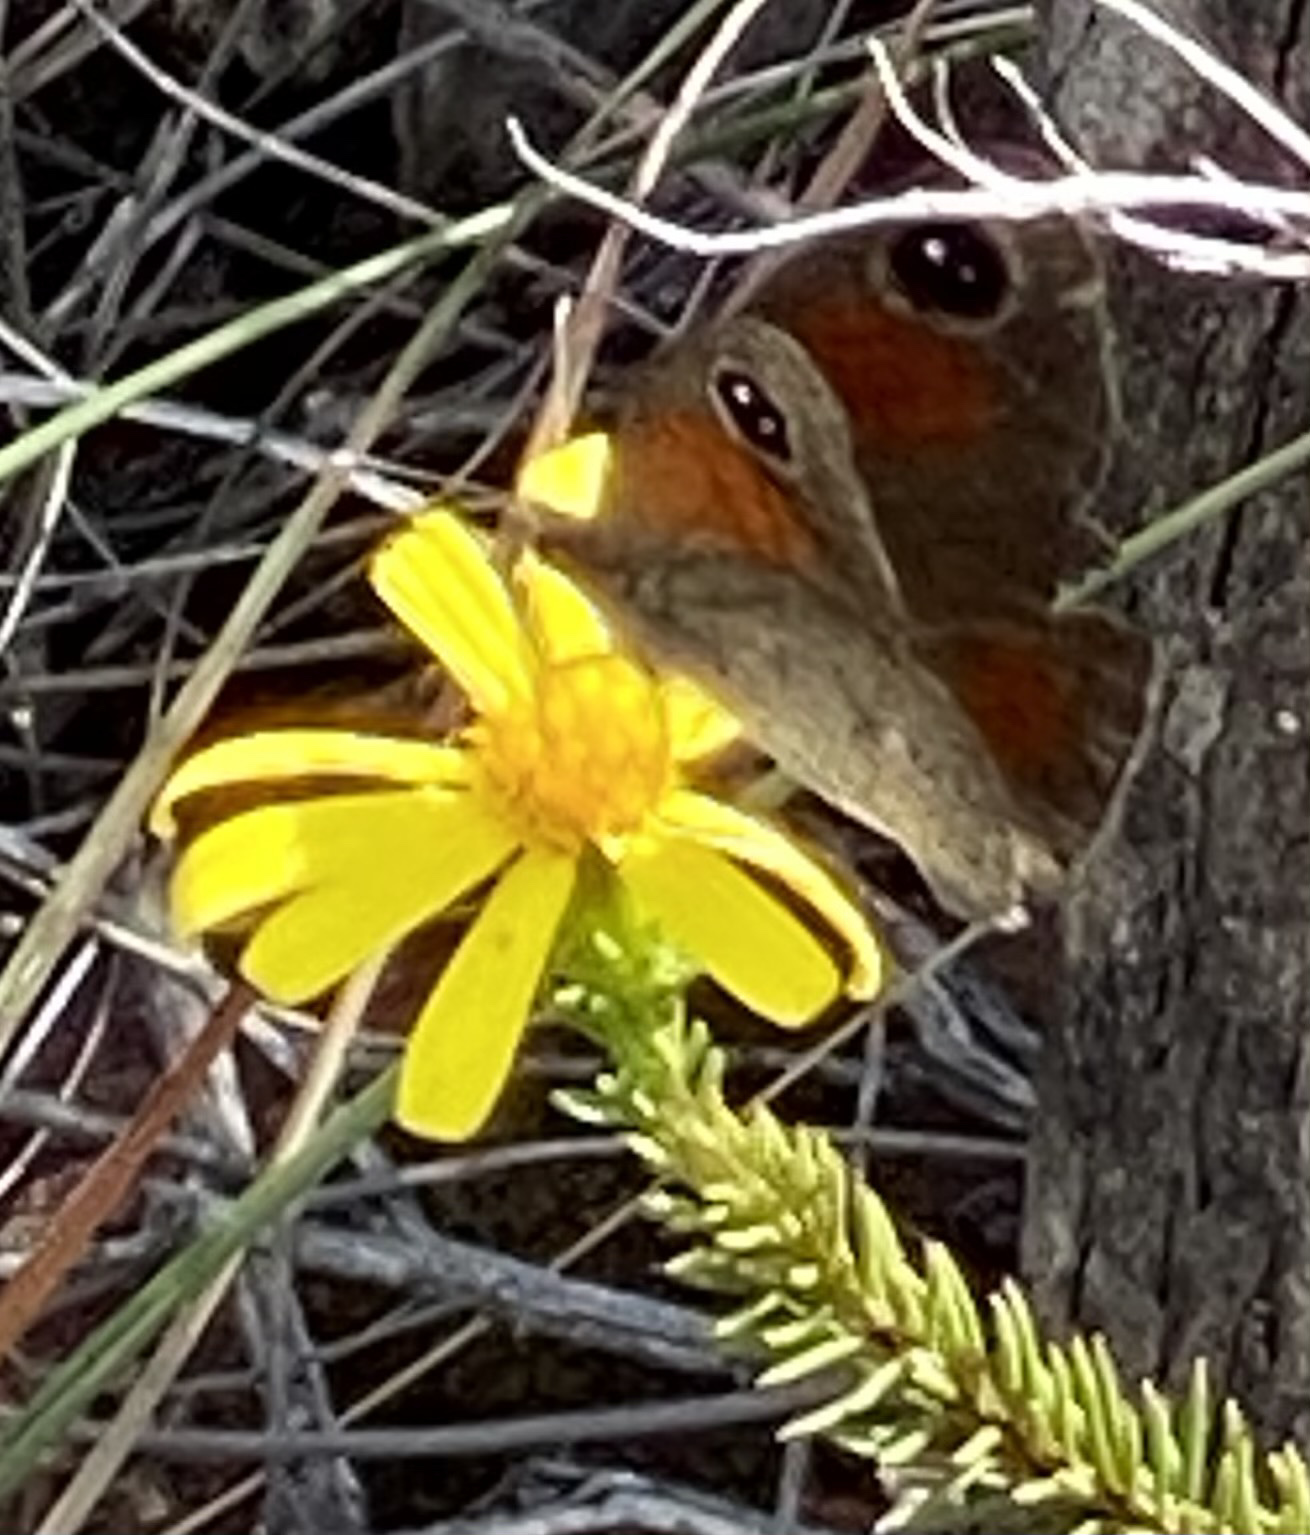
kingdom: Animalia
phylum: Arthropoda
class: Insecta
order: Lepidoptera
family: Nymphalidae
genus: Stygionympha
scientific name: Stygionympha vigilans
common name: Western hillside brown
